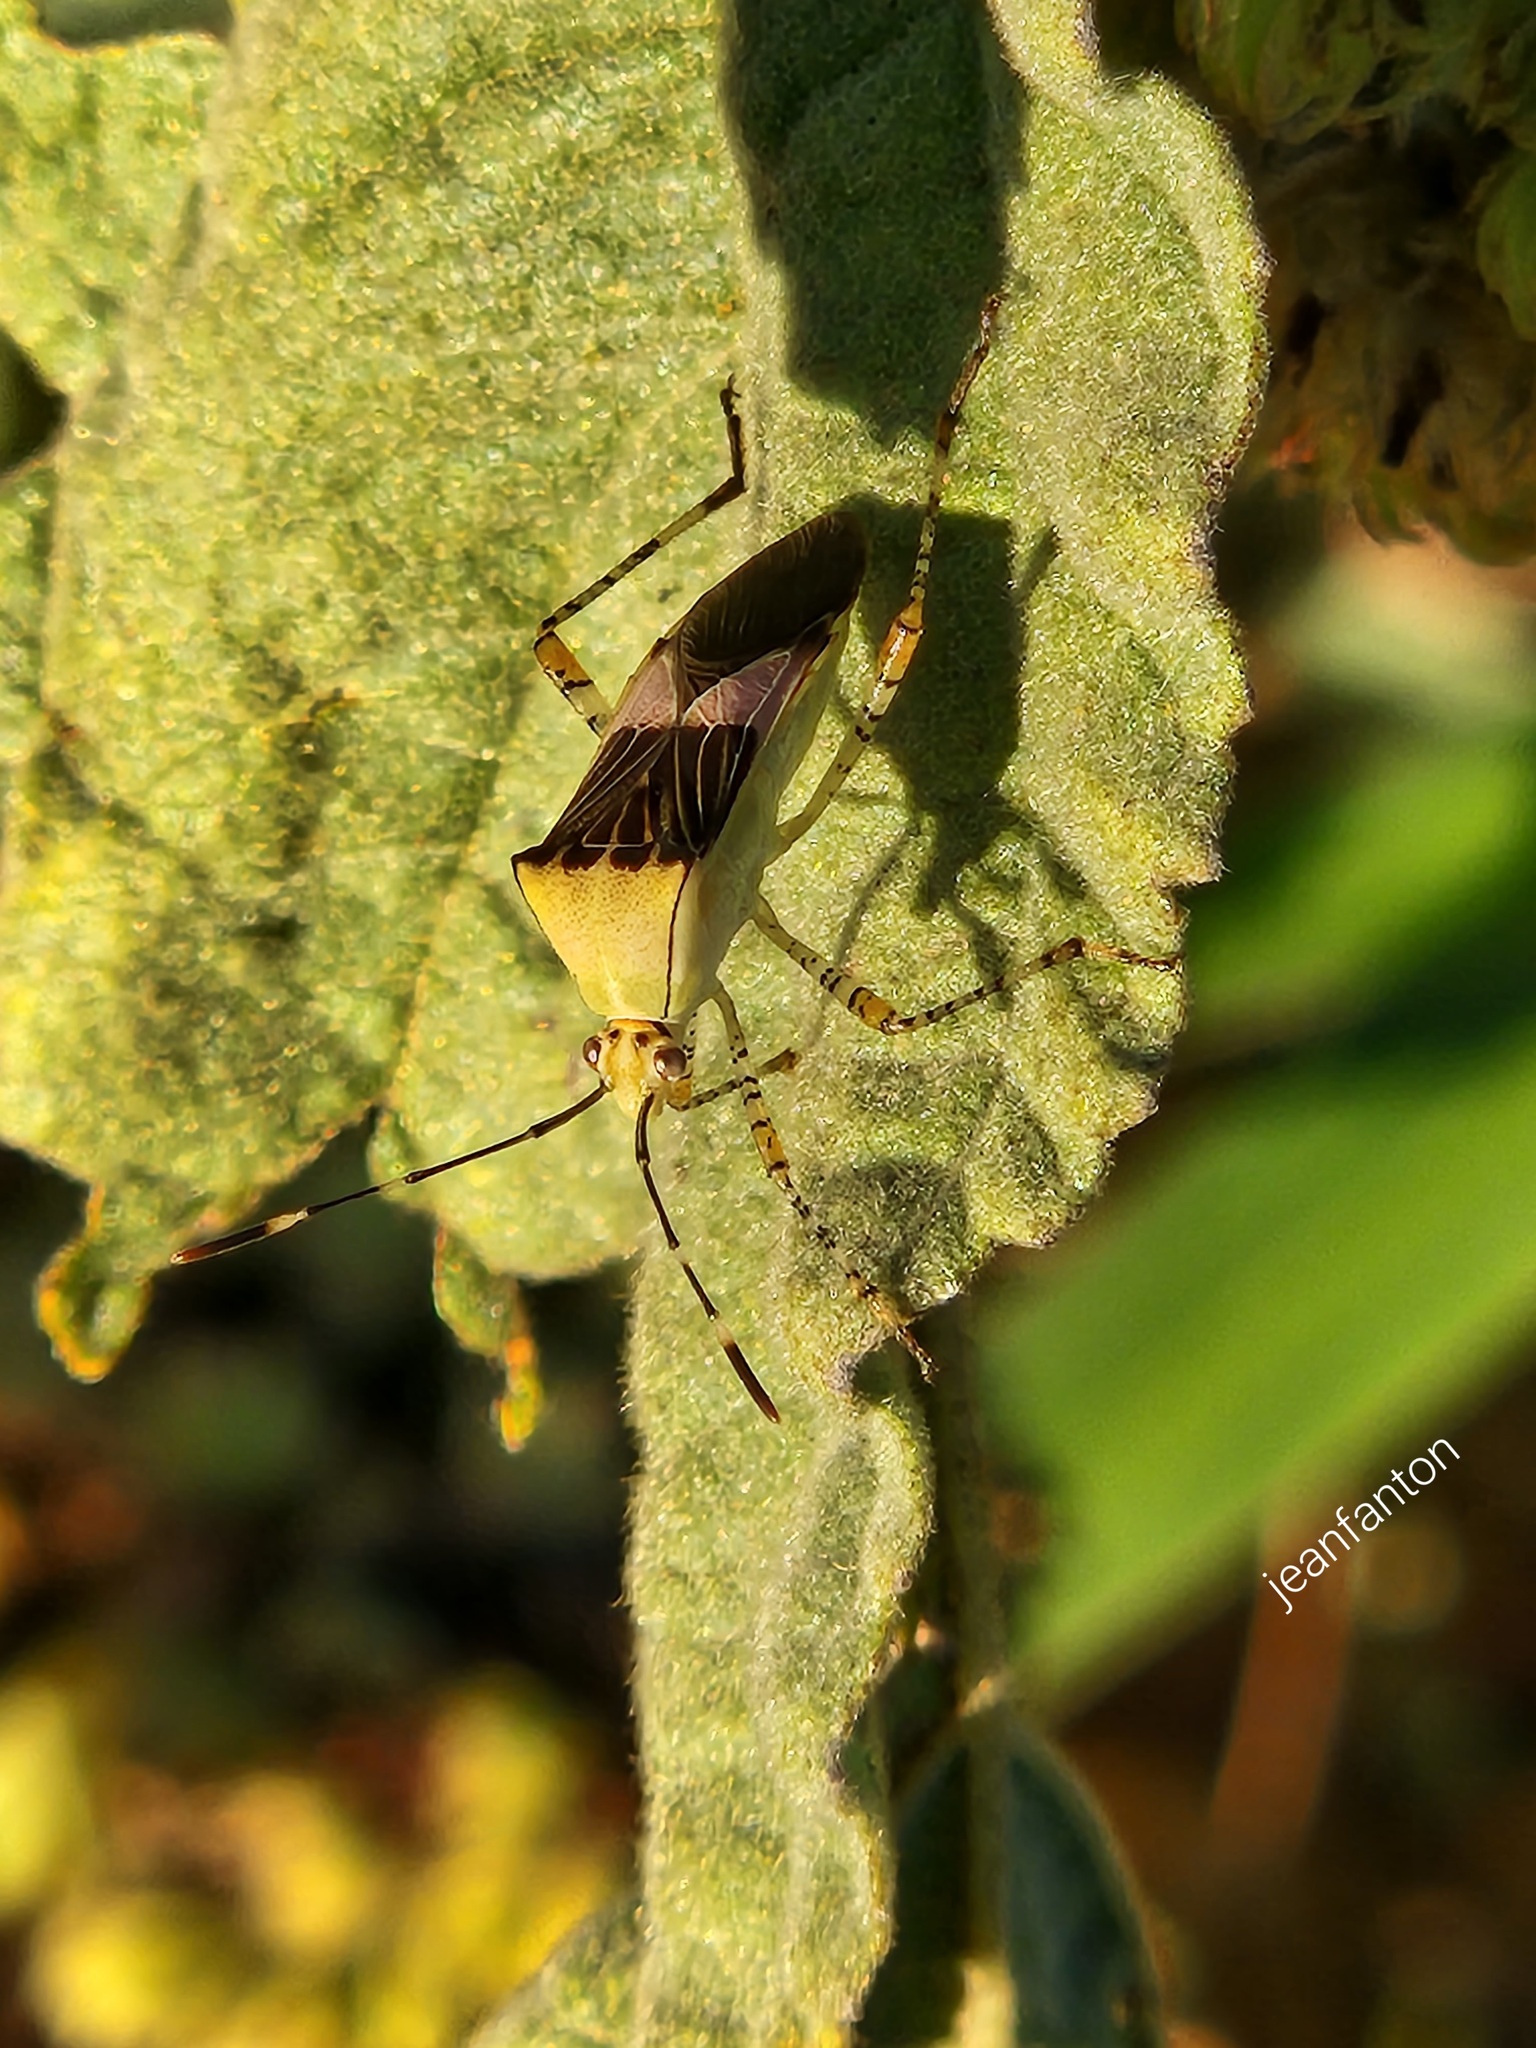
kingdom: Animalia
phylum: Arthropoda
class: Insecta
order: Hemiptera
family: Coreidae
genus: Hypselonotus
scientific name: Hypselonotus fulvus
